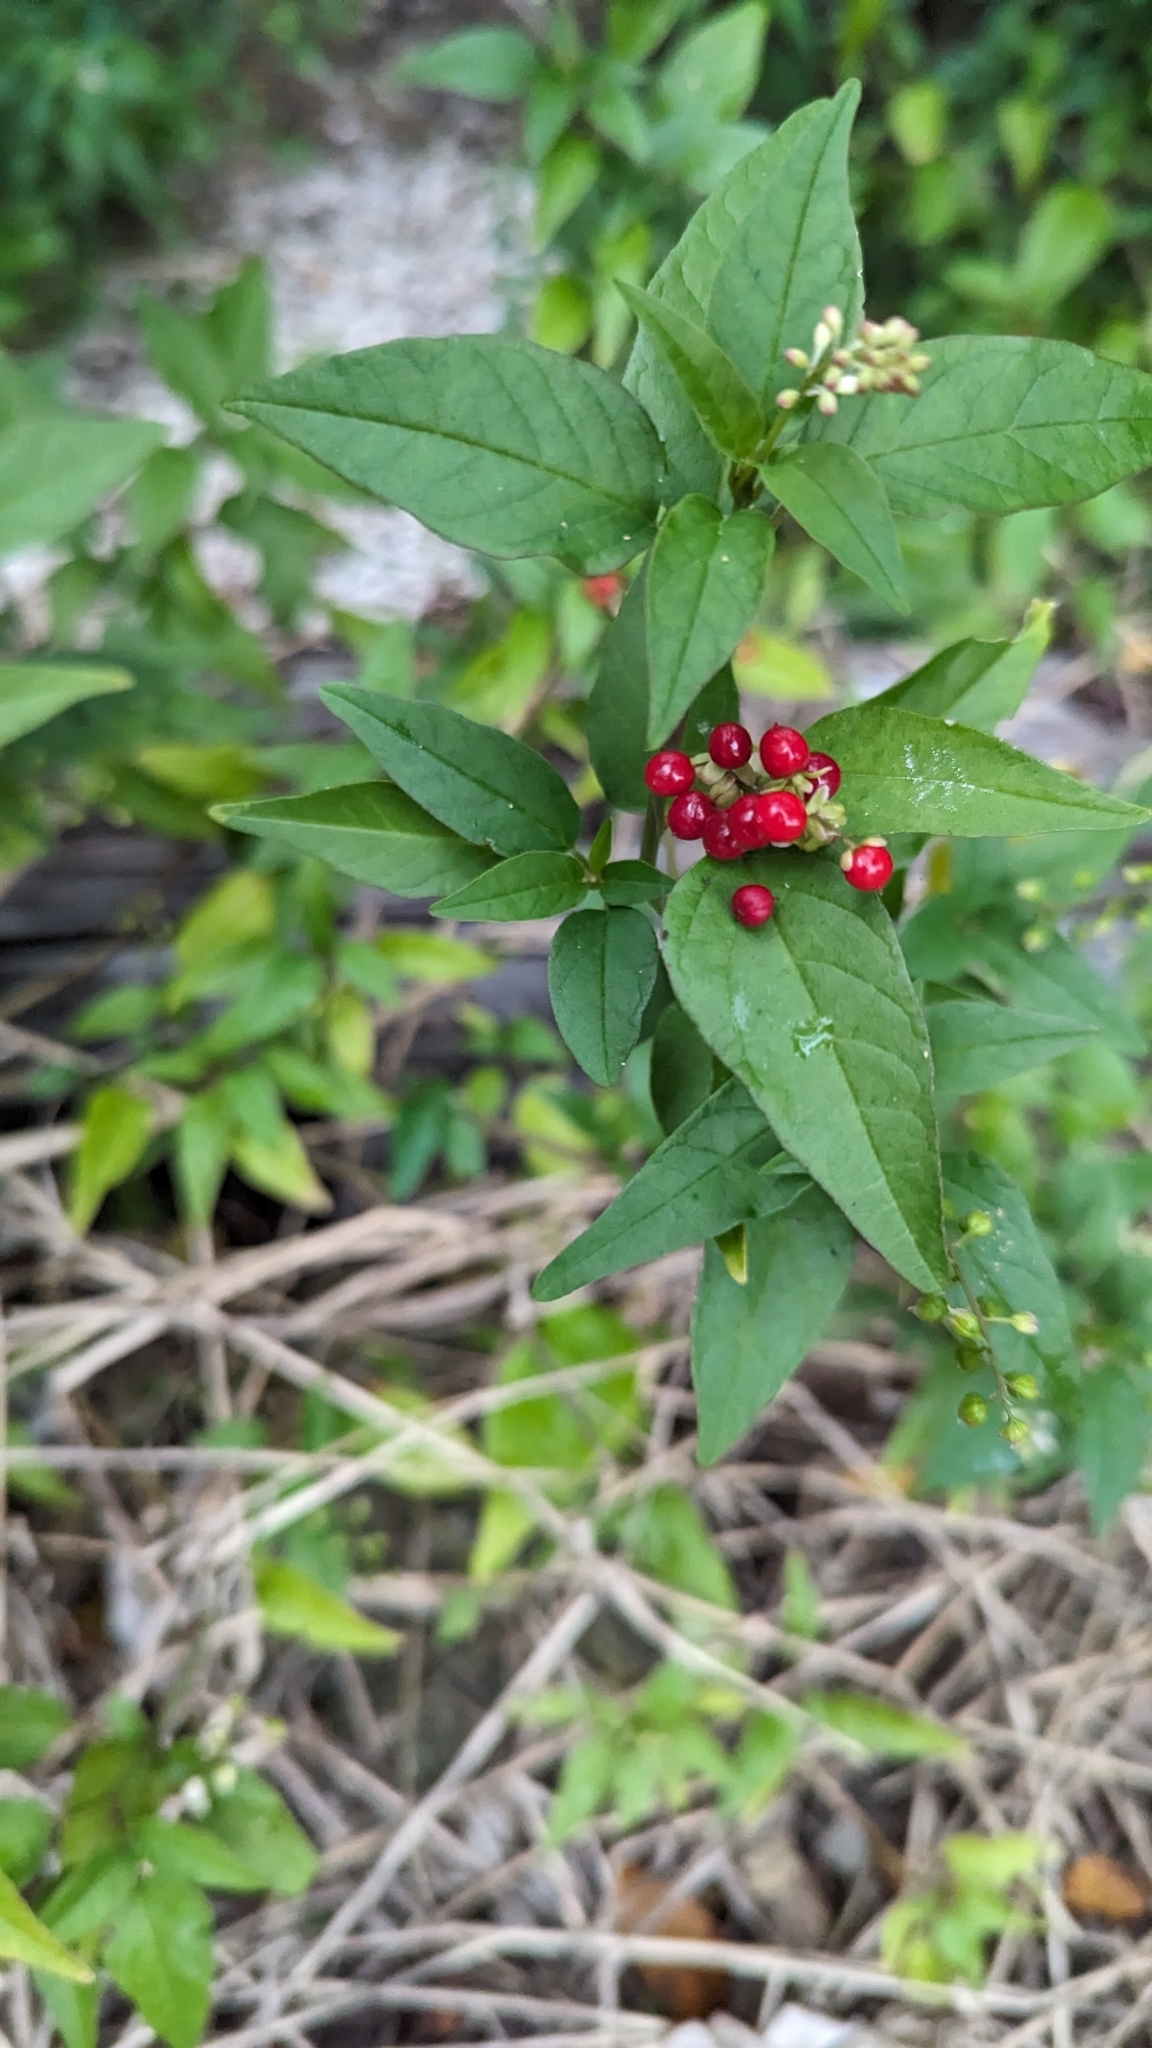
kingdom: Plantae
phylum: Tracheophyta
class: Magnoliopsida
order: Caryophyllales
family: Phytolaccaceae
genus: Rivina
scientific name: Rivina humilis
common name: Rougeplant
